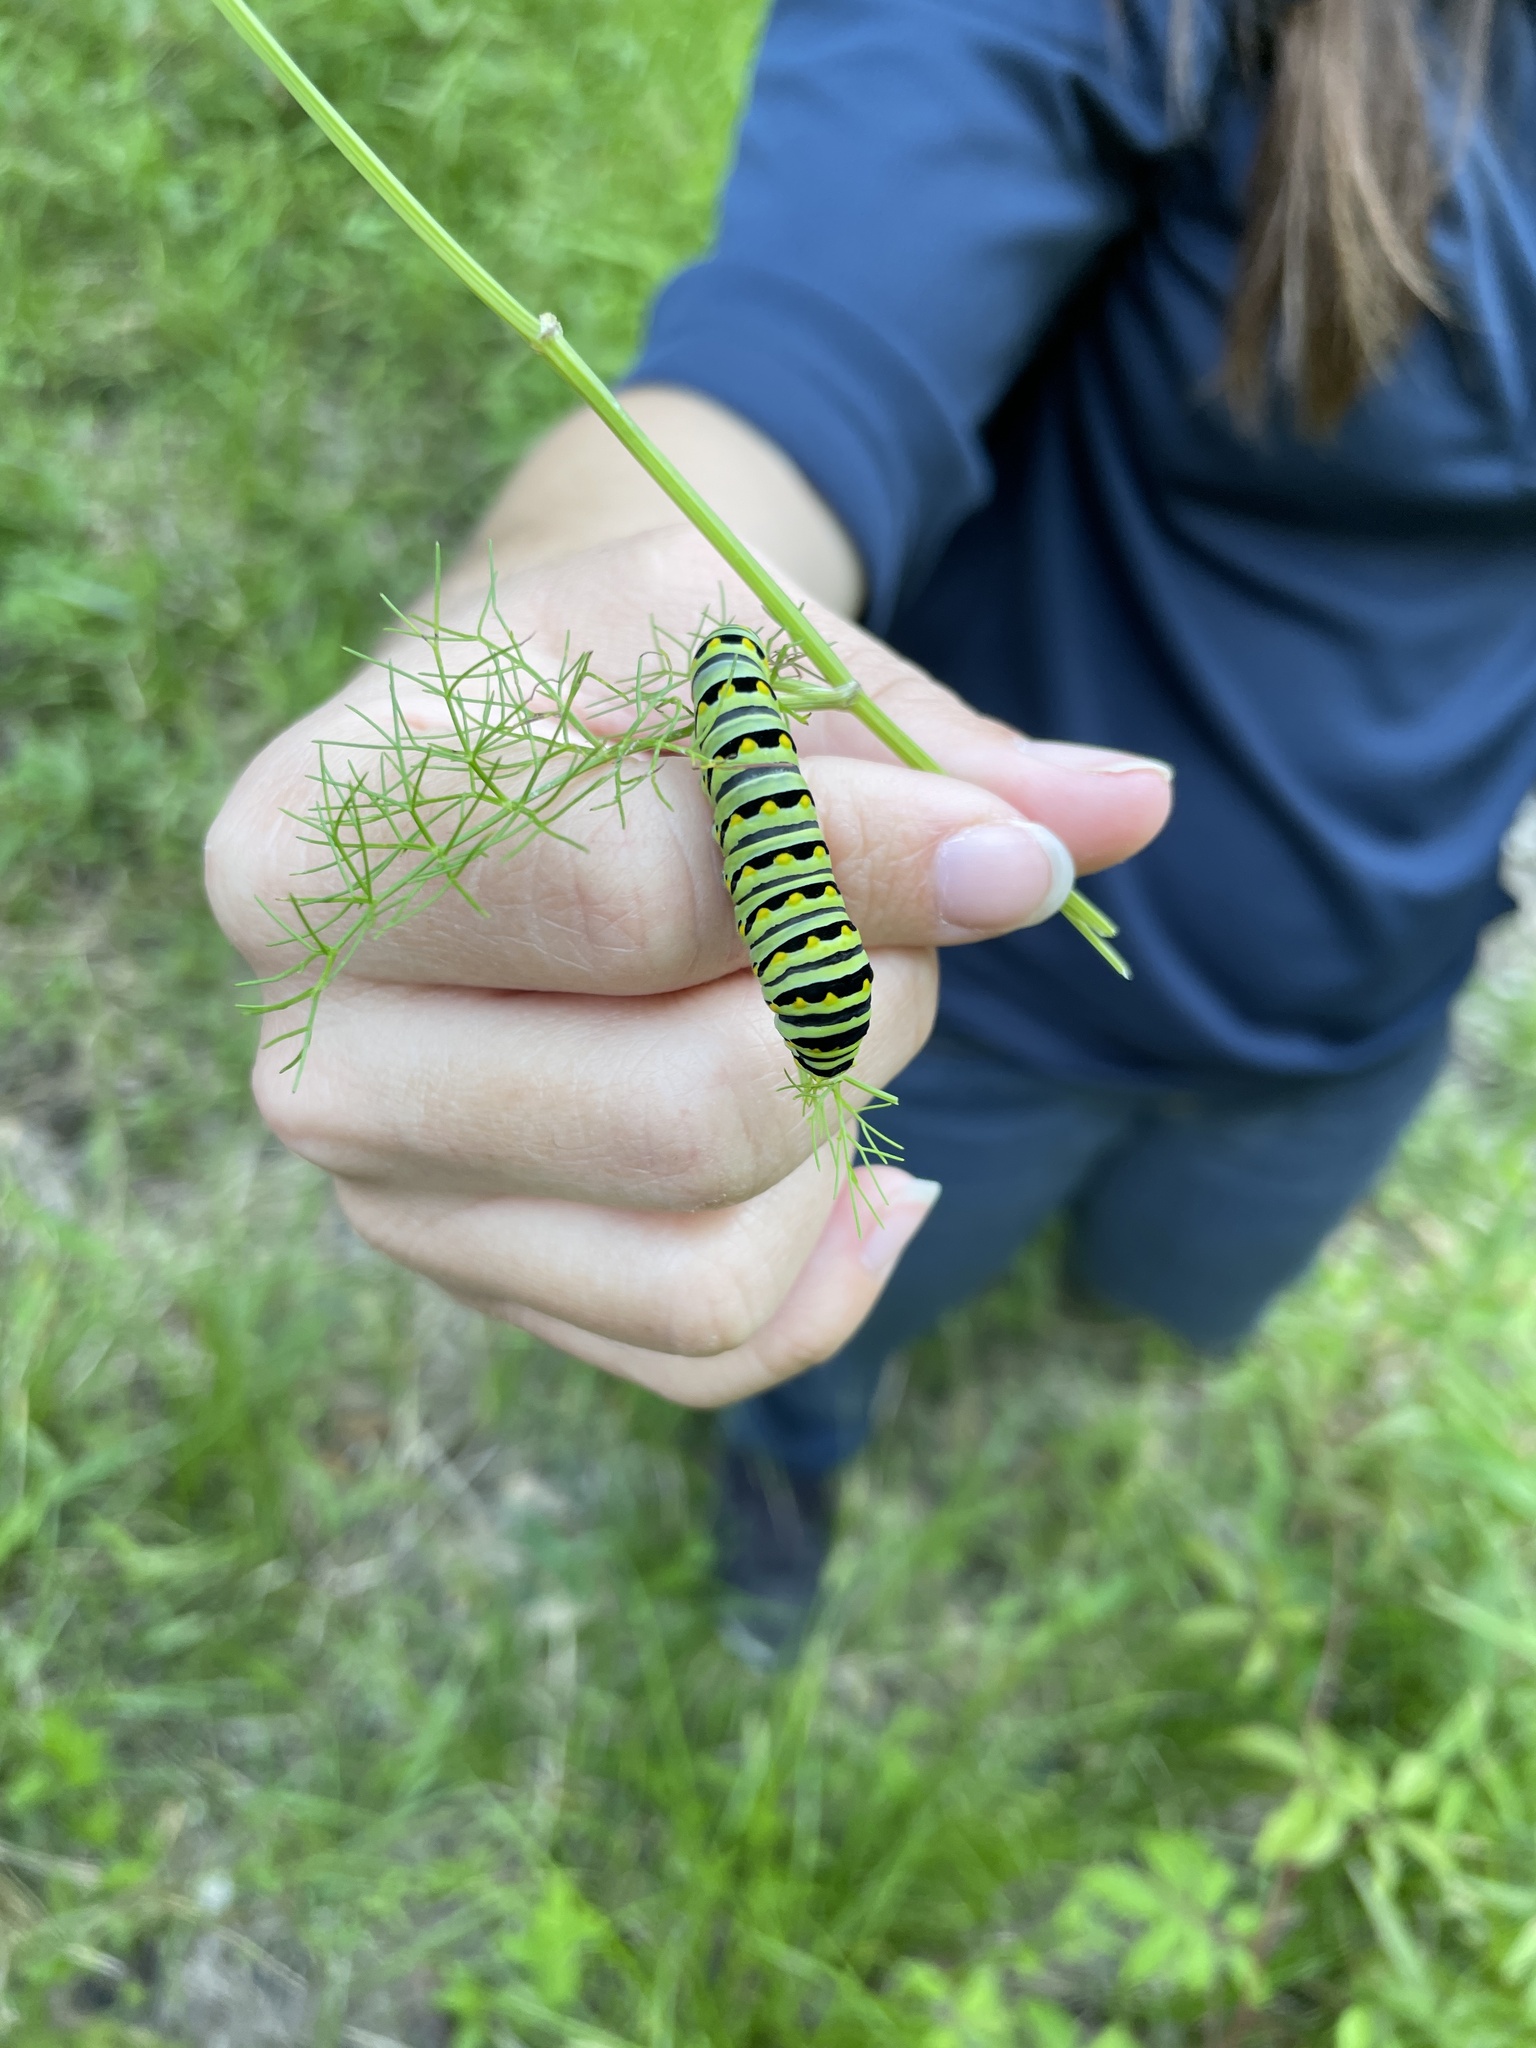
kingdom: Animalia
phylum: Arthropoda
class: Insecta
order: Lepidoptera
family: Papilionidae
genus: Papilio
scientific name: Papilio polyxenes
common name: Black swallowtail
